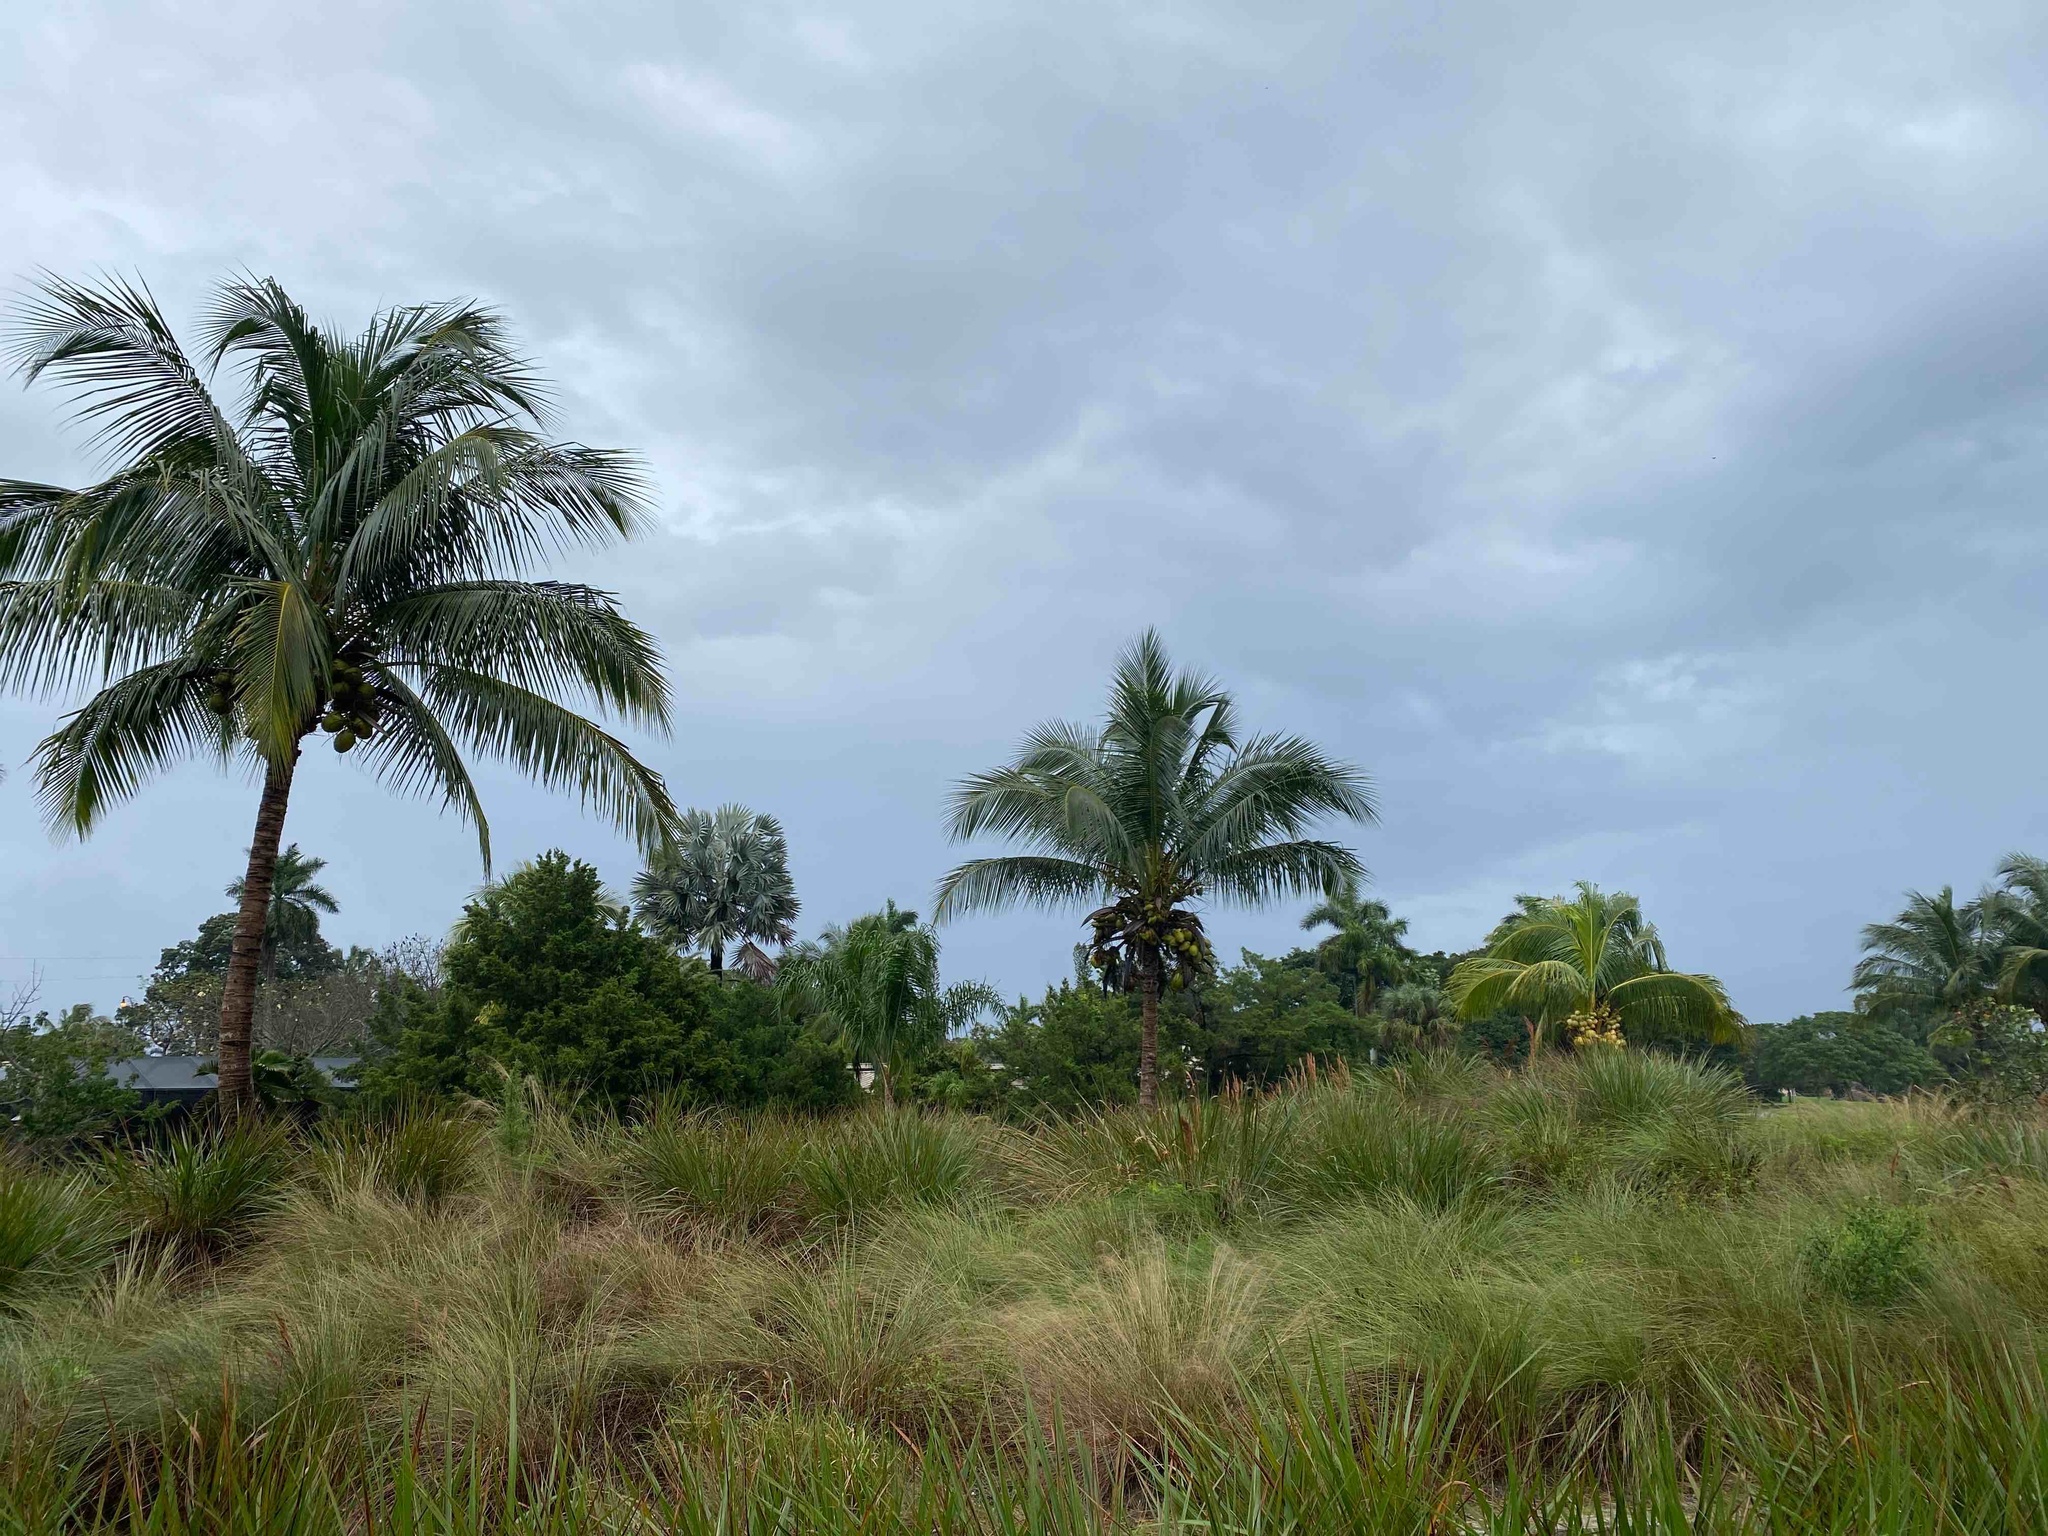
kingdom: Plantae
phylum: Tracheophyta
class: Liliopsida
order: Arecales
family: Arecaceae
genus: Cocos
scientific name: Cocos nucifera
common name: Coconut palm
